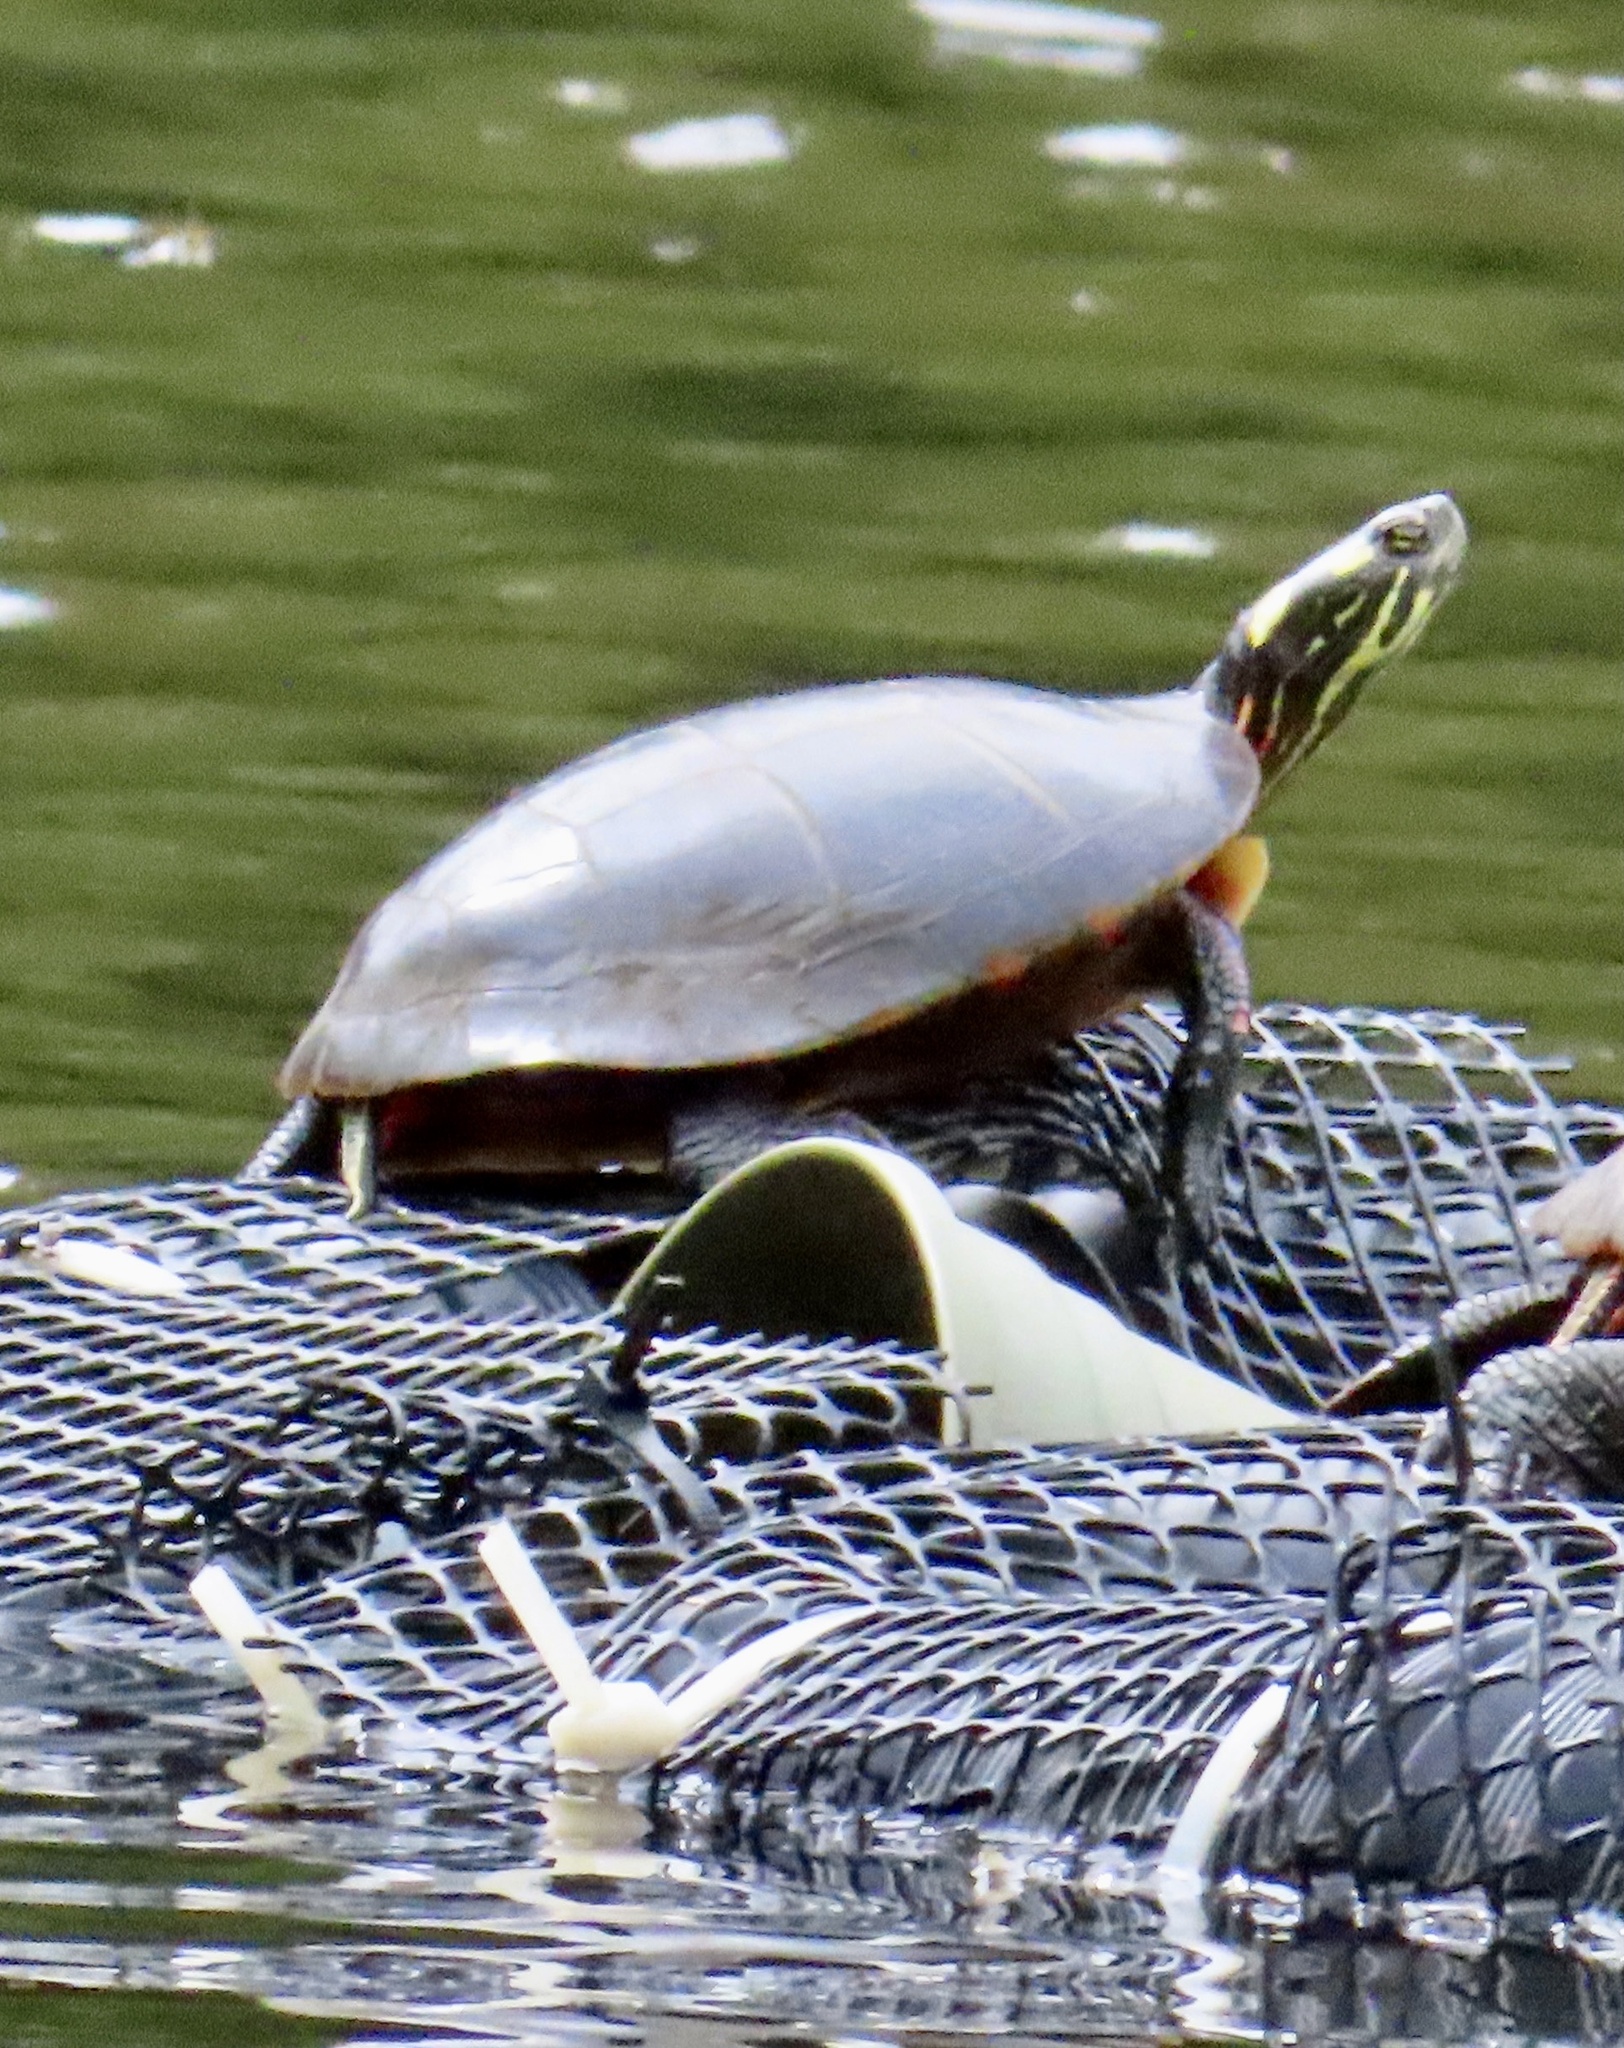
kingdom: Animalia
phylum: Chordata
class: Testudines
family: Emydidae
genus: Chrysemys
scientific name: Chrysemys picta
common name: Painted turtle
